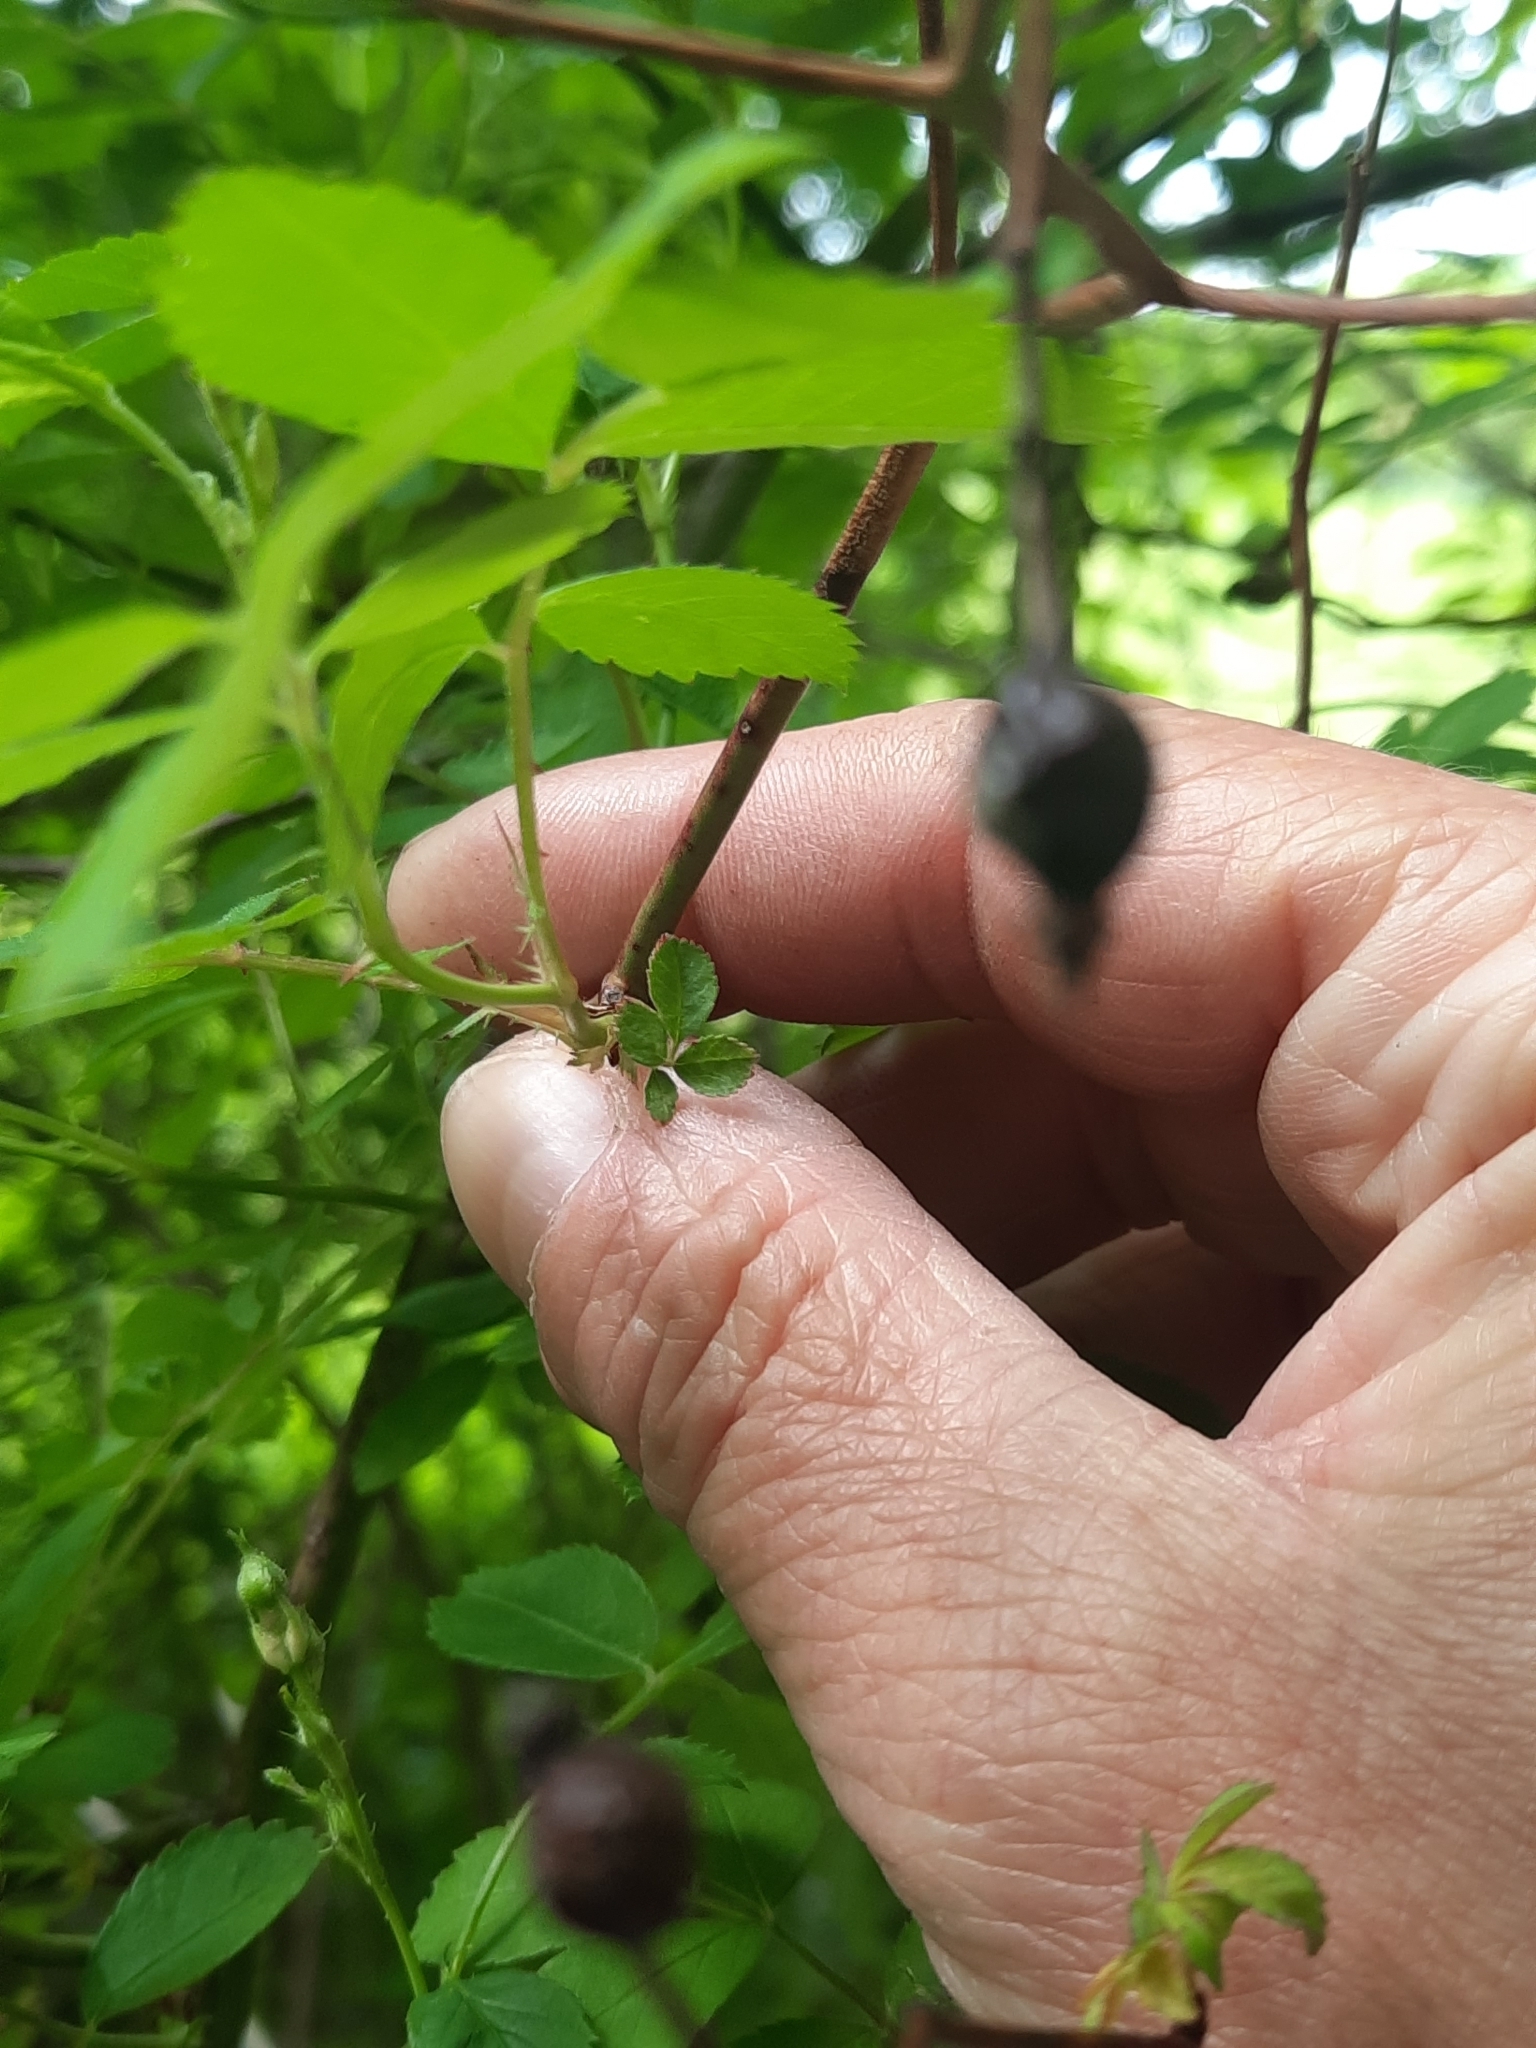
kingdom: Plantae
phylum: Tracheophyta
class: Magnoliopsida
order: Rosales
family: Rosaceae
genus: Rosa
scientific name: Rosa multiflora
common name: Multiflora rose
